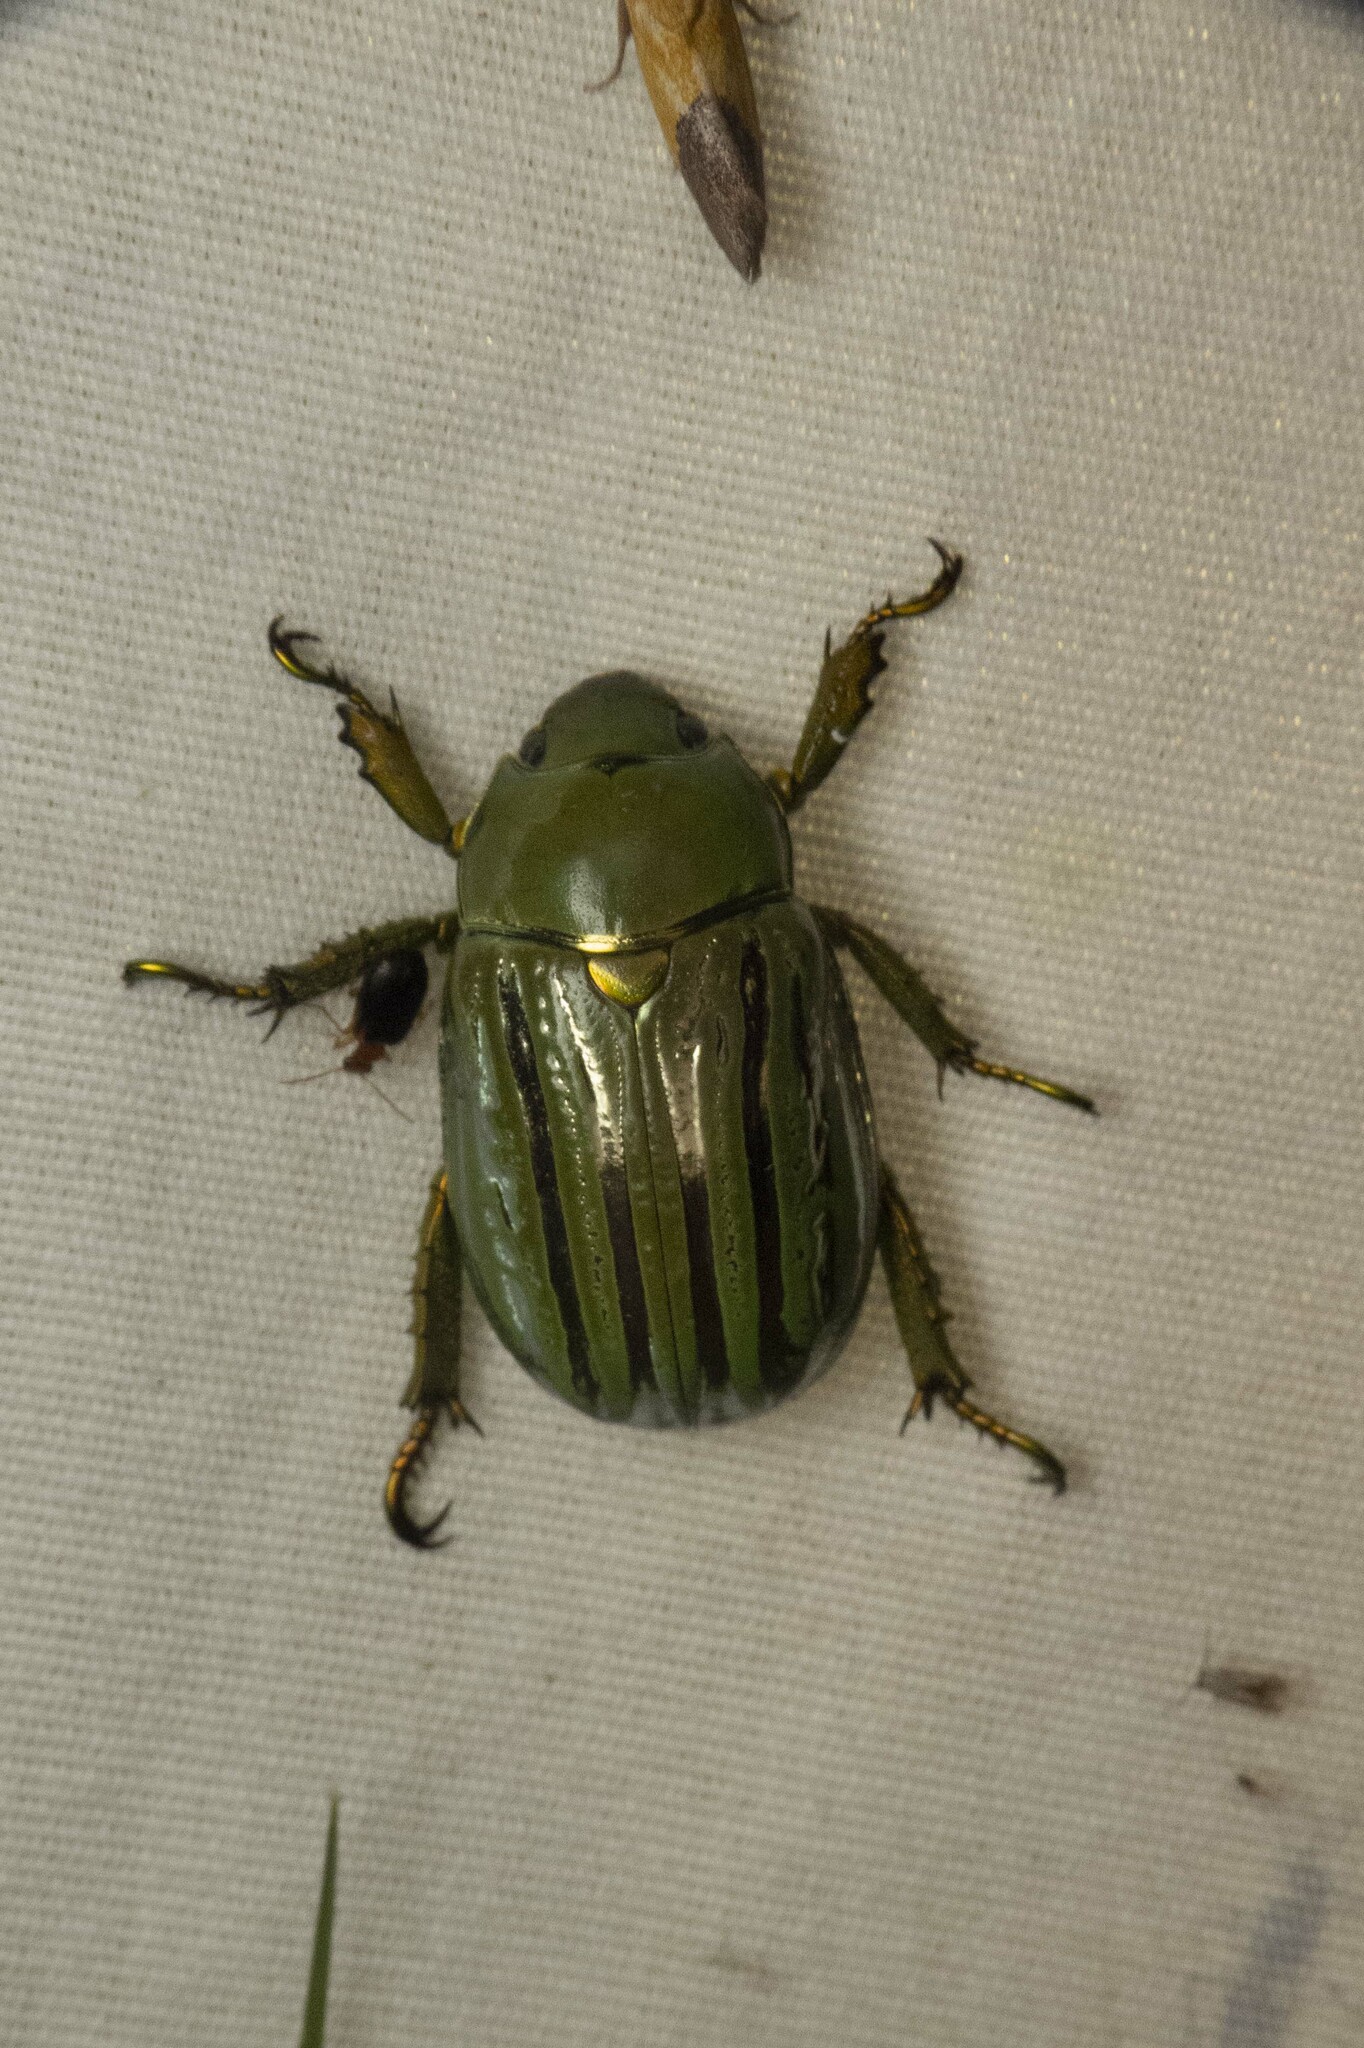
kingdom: Animalia
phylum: Arthropoda
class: Insecta
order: Coleoptera
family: Scarabaeidae
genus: Chrysina
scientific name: Chrysina gloriosa
